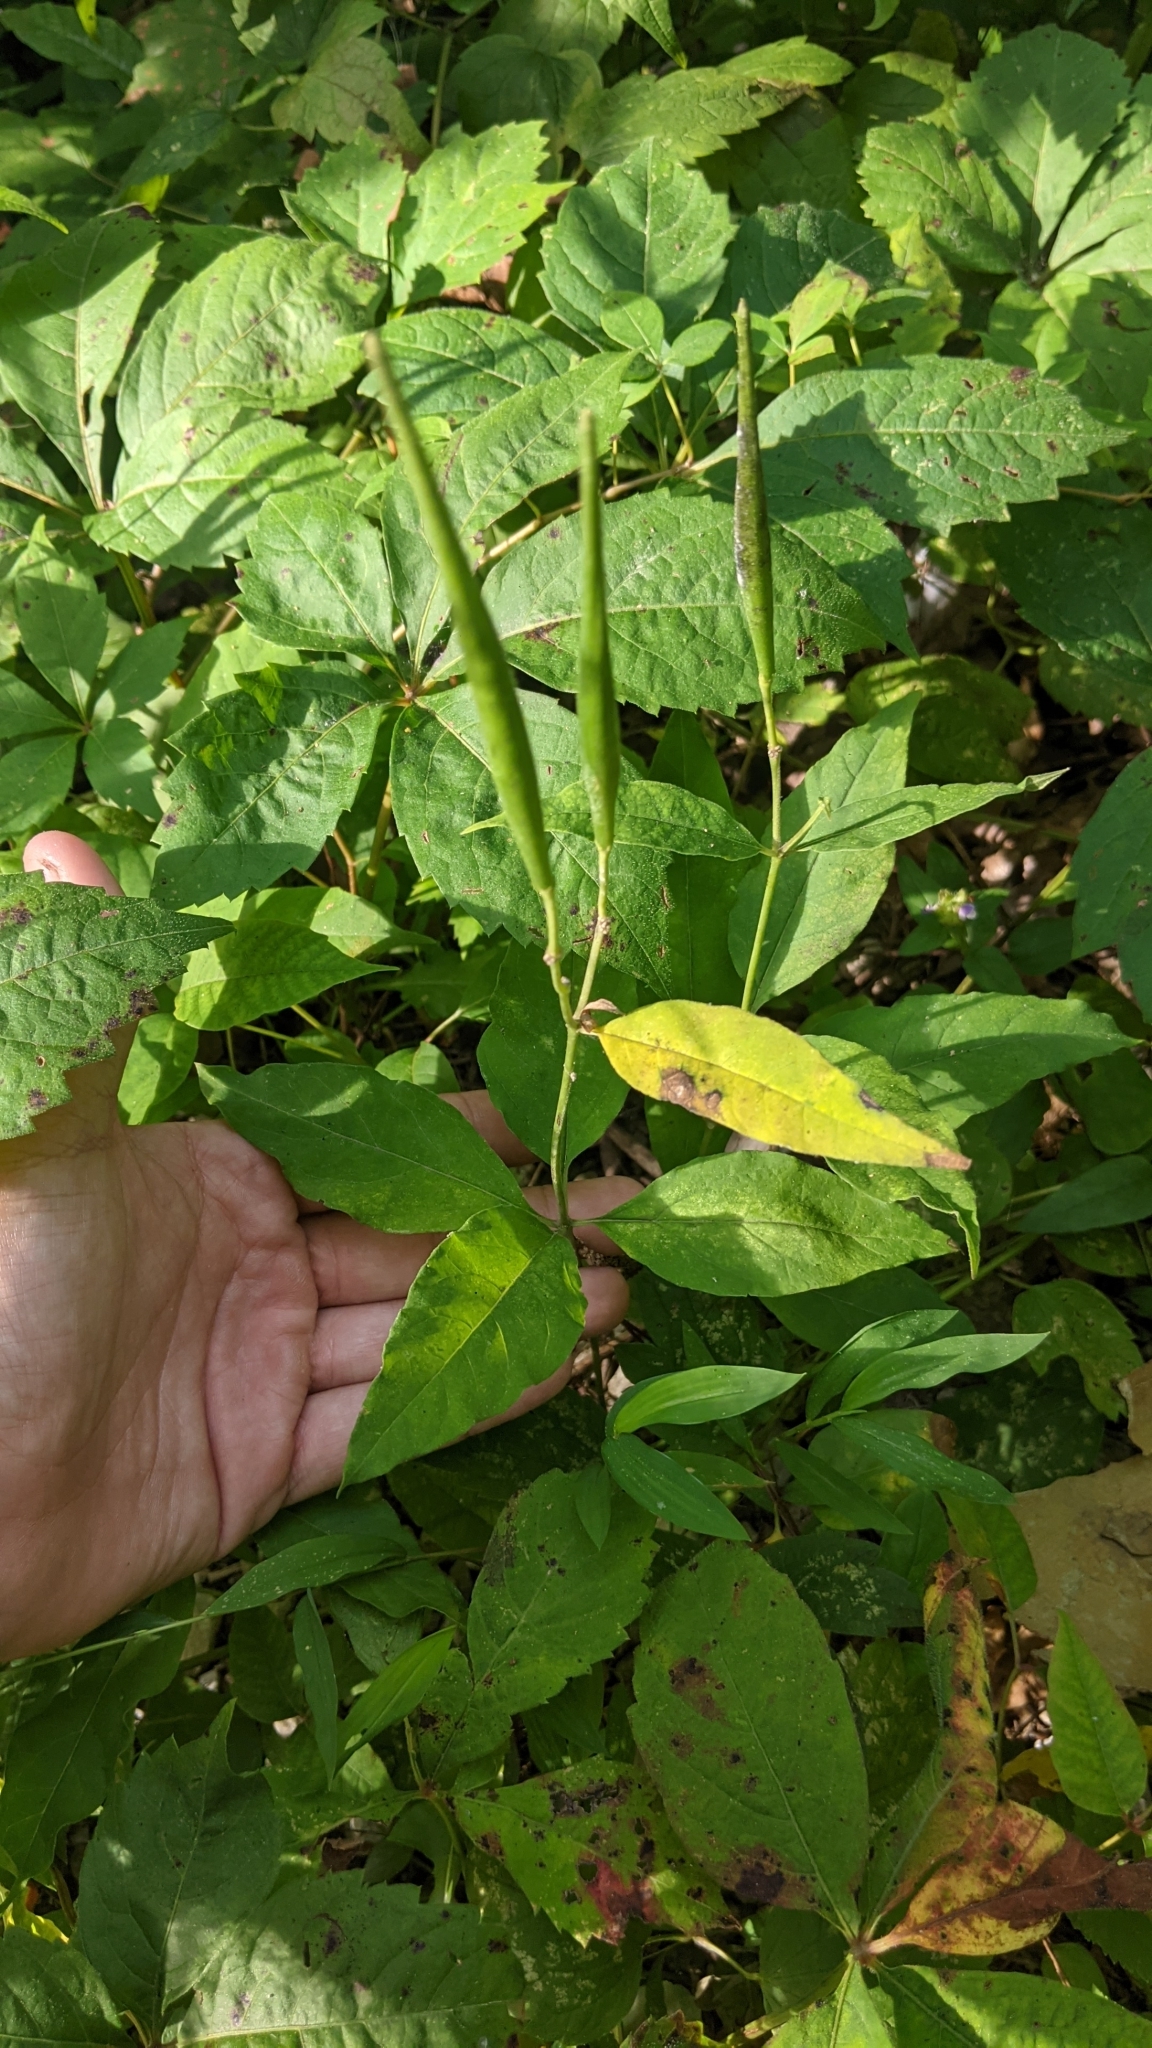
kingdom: Plantae
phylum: Tracheophyta
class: Magnoliopsida
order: Gentianales
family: Apocynaceae
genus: Asclepias
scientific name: Asclepias quadrifolia
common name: Whorled milkweed
